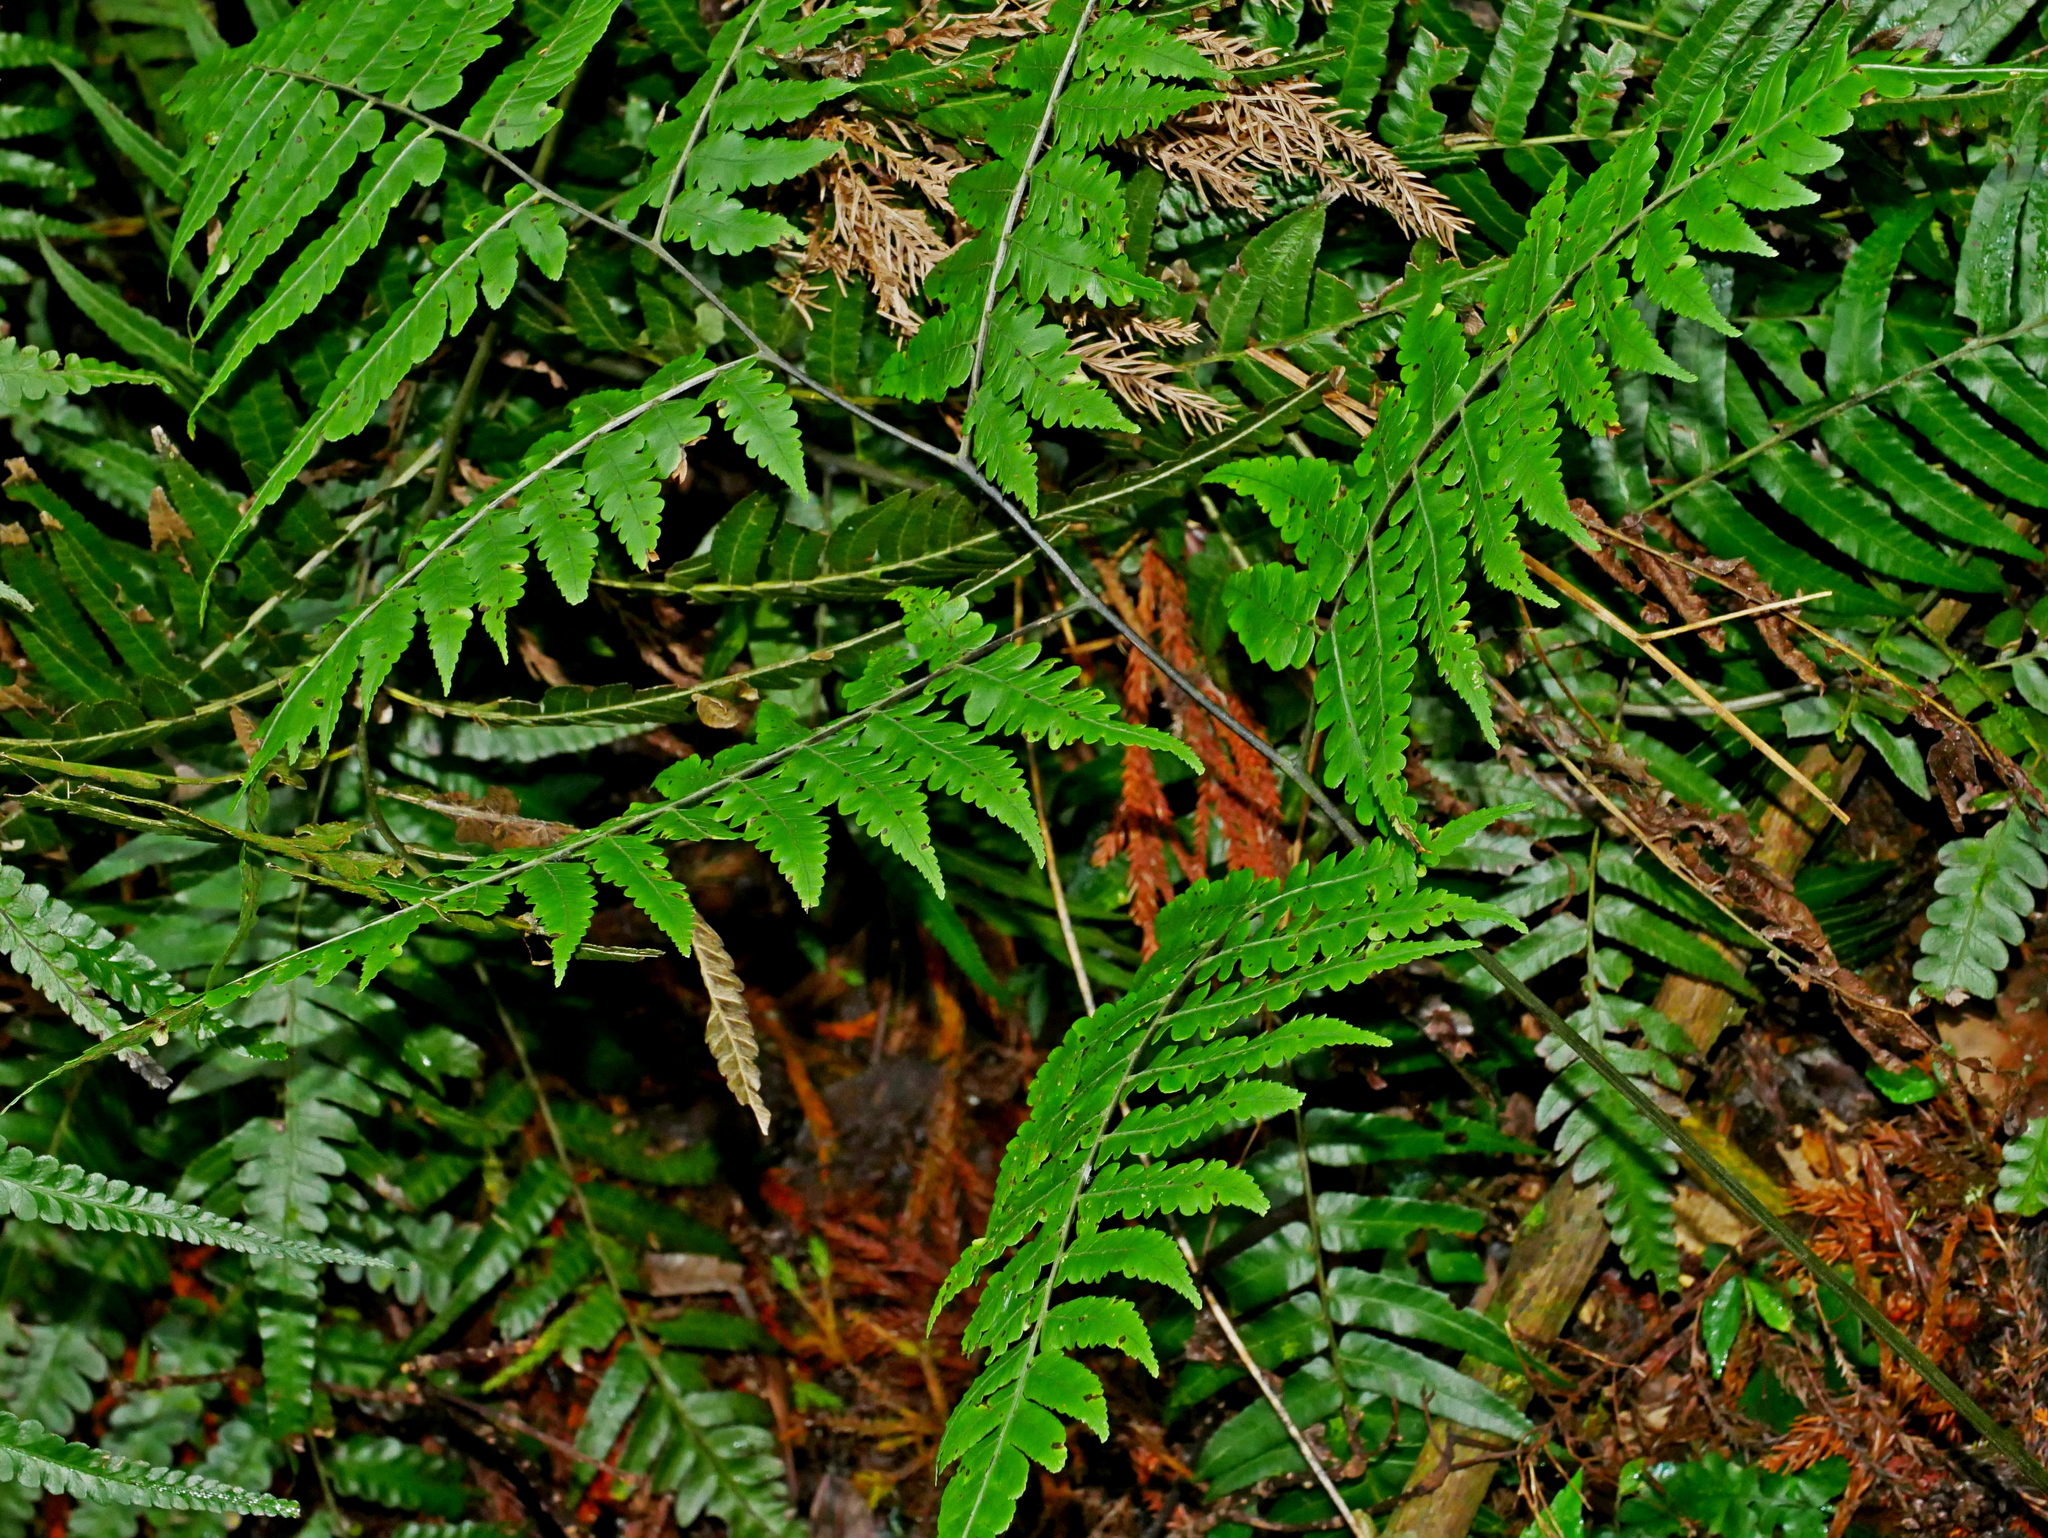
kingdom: Plantae
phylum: Tracheophyta
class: Polypodiopsida
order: Polypodiales
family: Athyriaceae
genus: Diplazium
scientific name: Diplazium virescens
